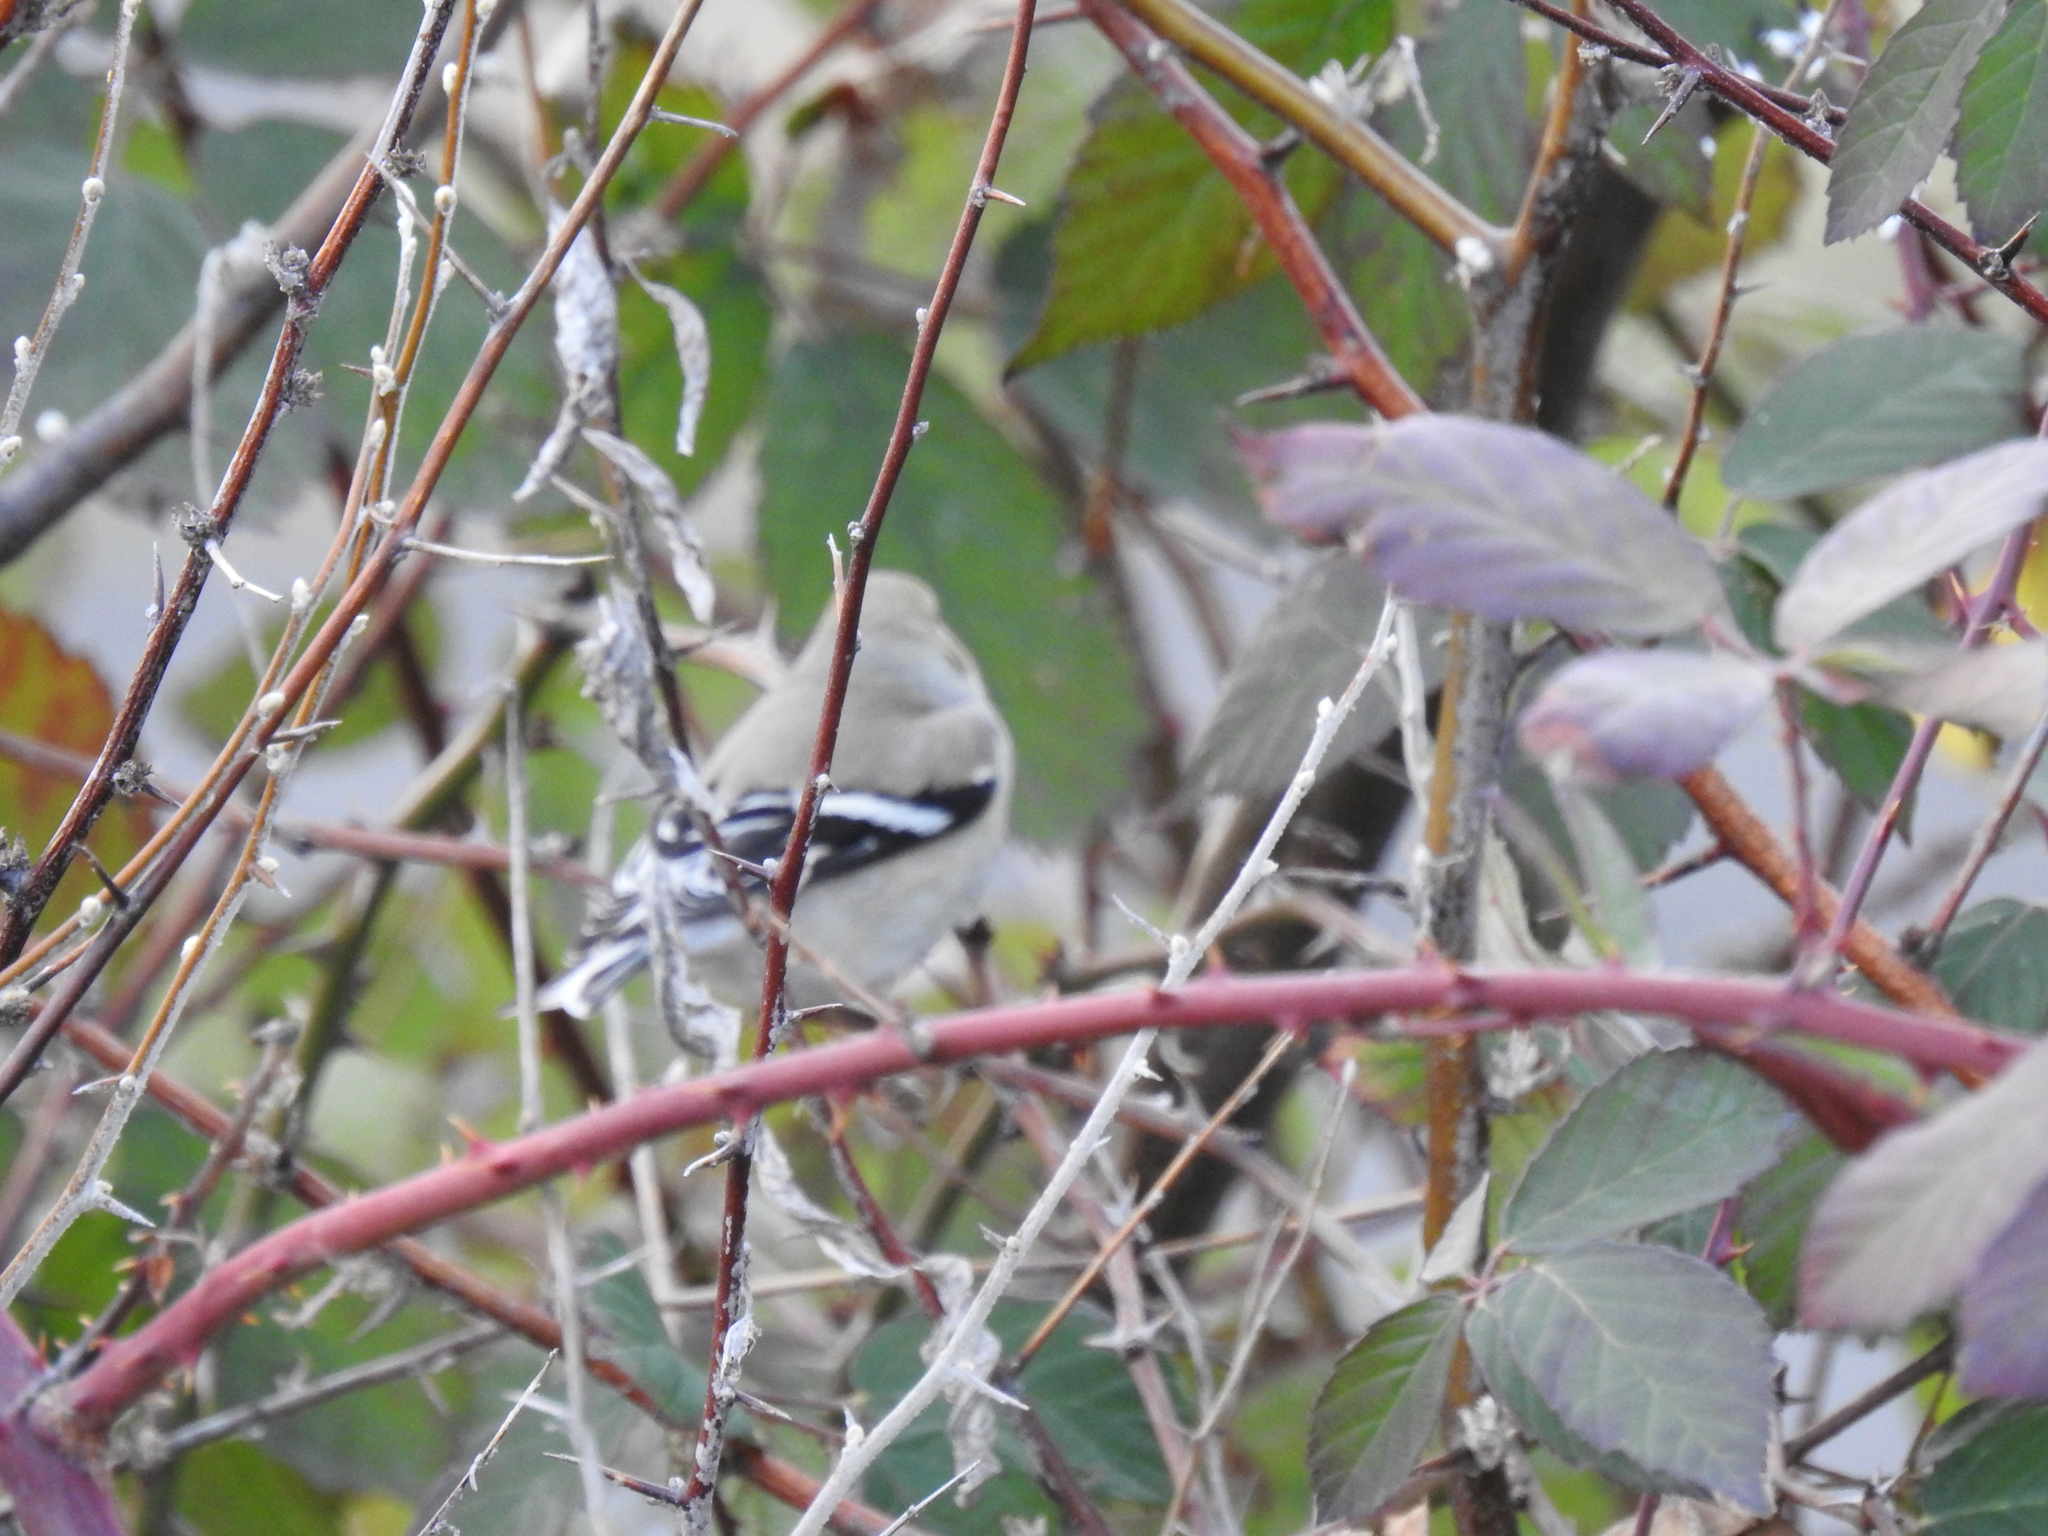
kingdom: Animalia
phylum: Chordata
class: Aves
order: Passeriformes
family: Fringillidae
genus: Spinus
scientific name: Spinus tristis
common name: American goldfinch
